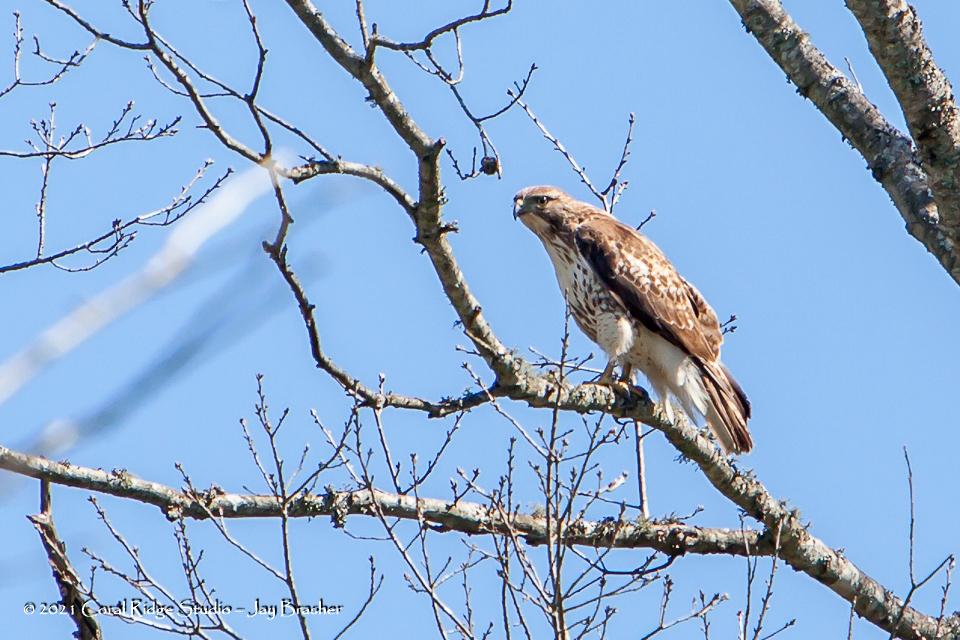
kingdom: Animalia
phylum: Chordata
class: Aves
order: Accipitriformes
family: Accipitridae
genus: Buteo
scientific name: Buteo jamaicensis
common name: Red-tailed hawk
